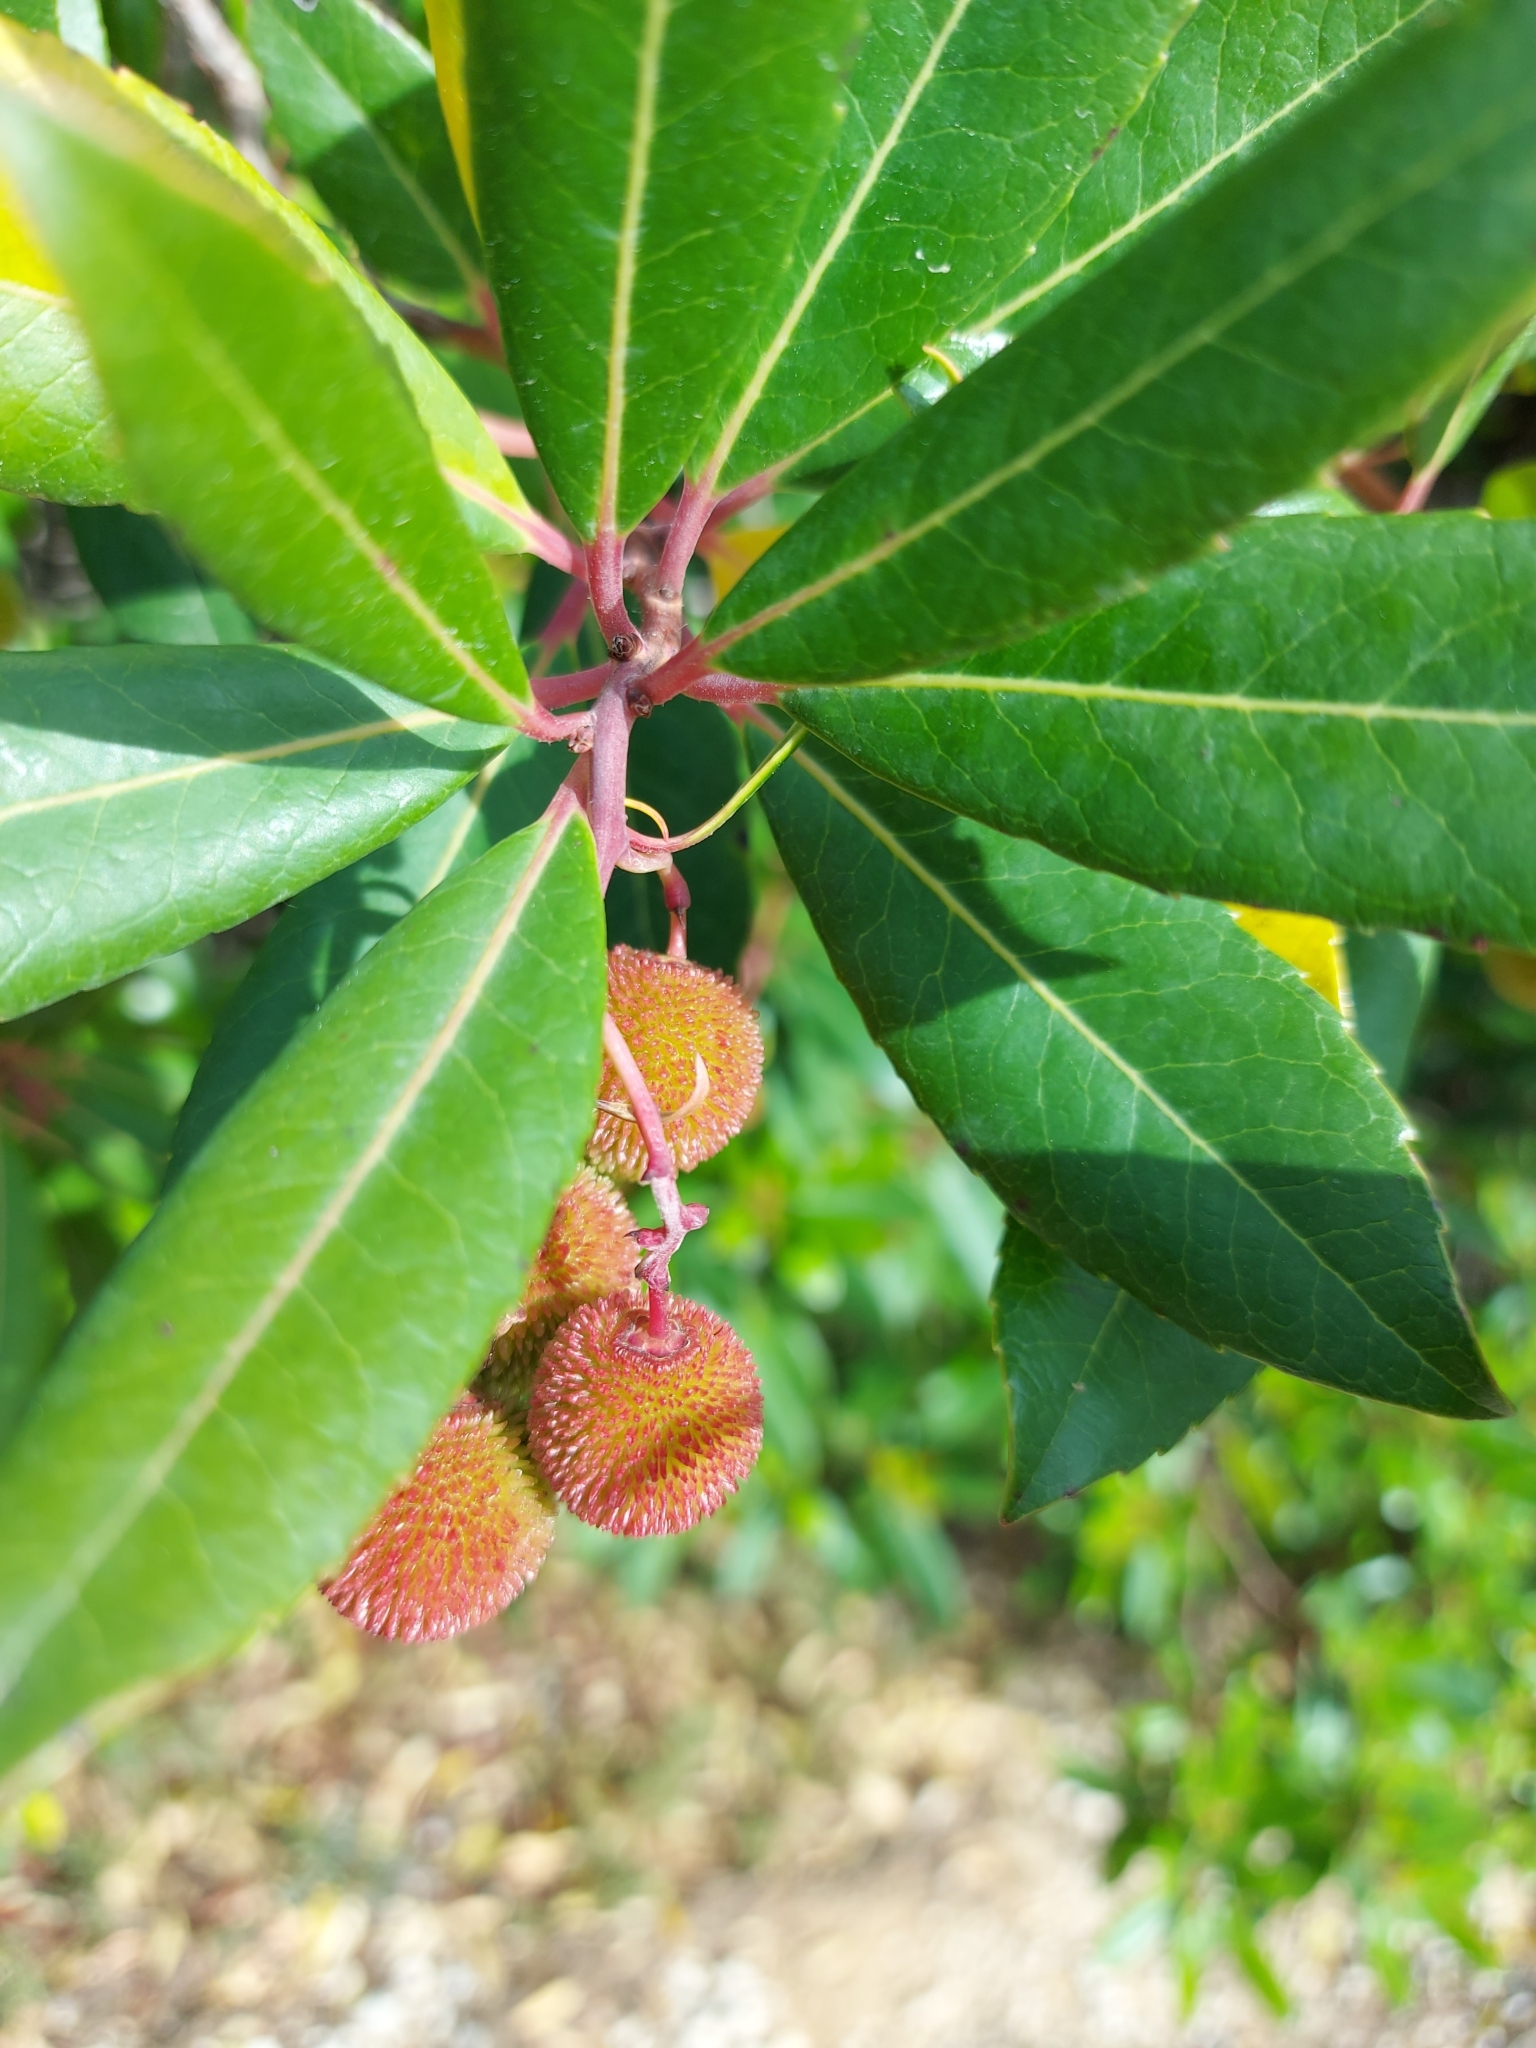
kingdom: Plantae
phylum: Tracheophyta
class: Magnoliopsida
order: Ericales
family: Ericaceae
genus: Arbutus
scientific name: Arbutus unedo
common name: Strawberry-tree
